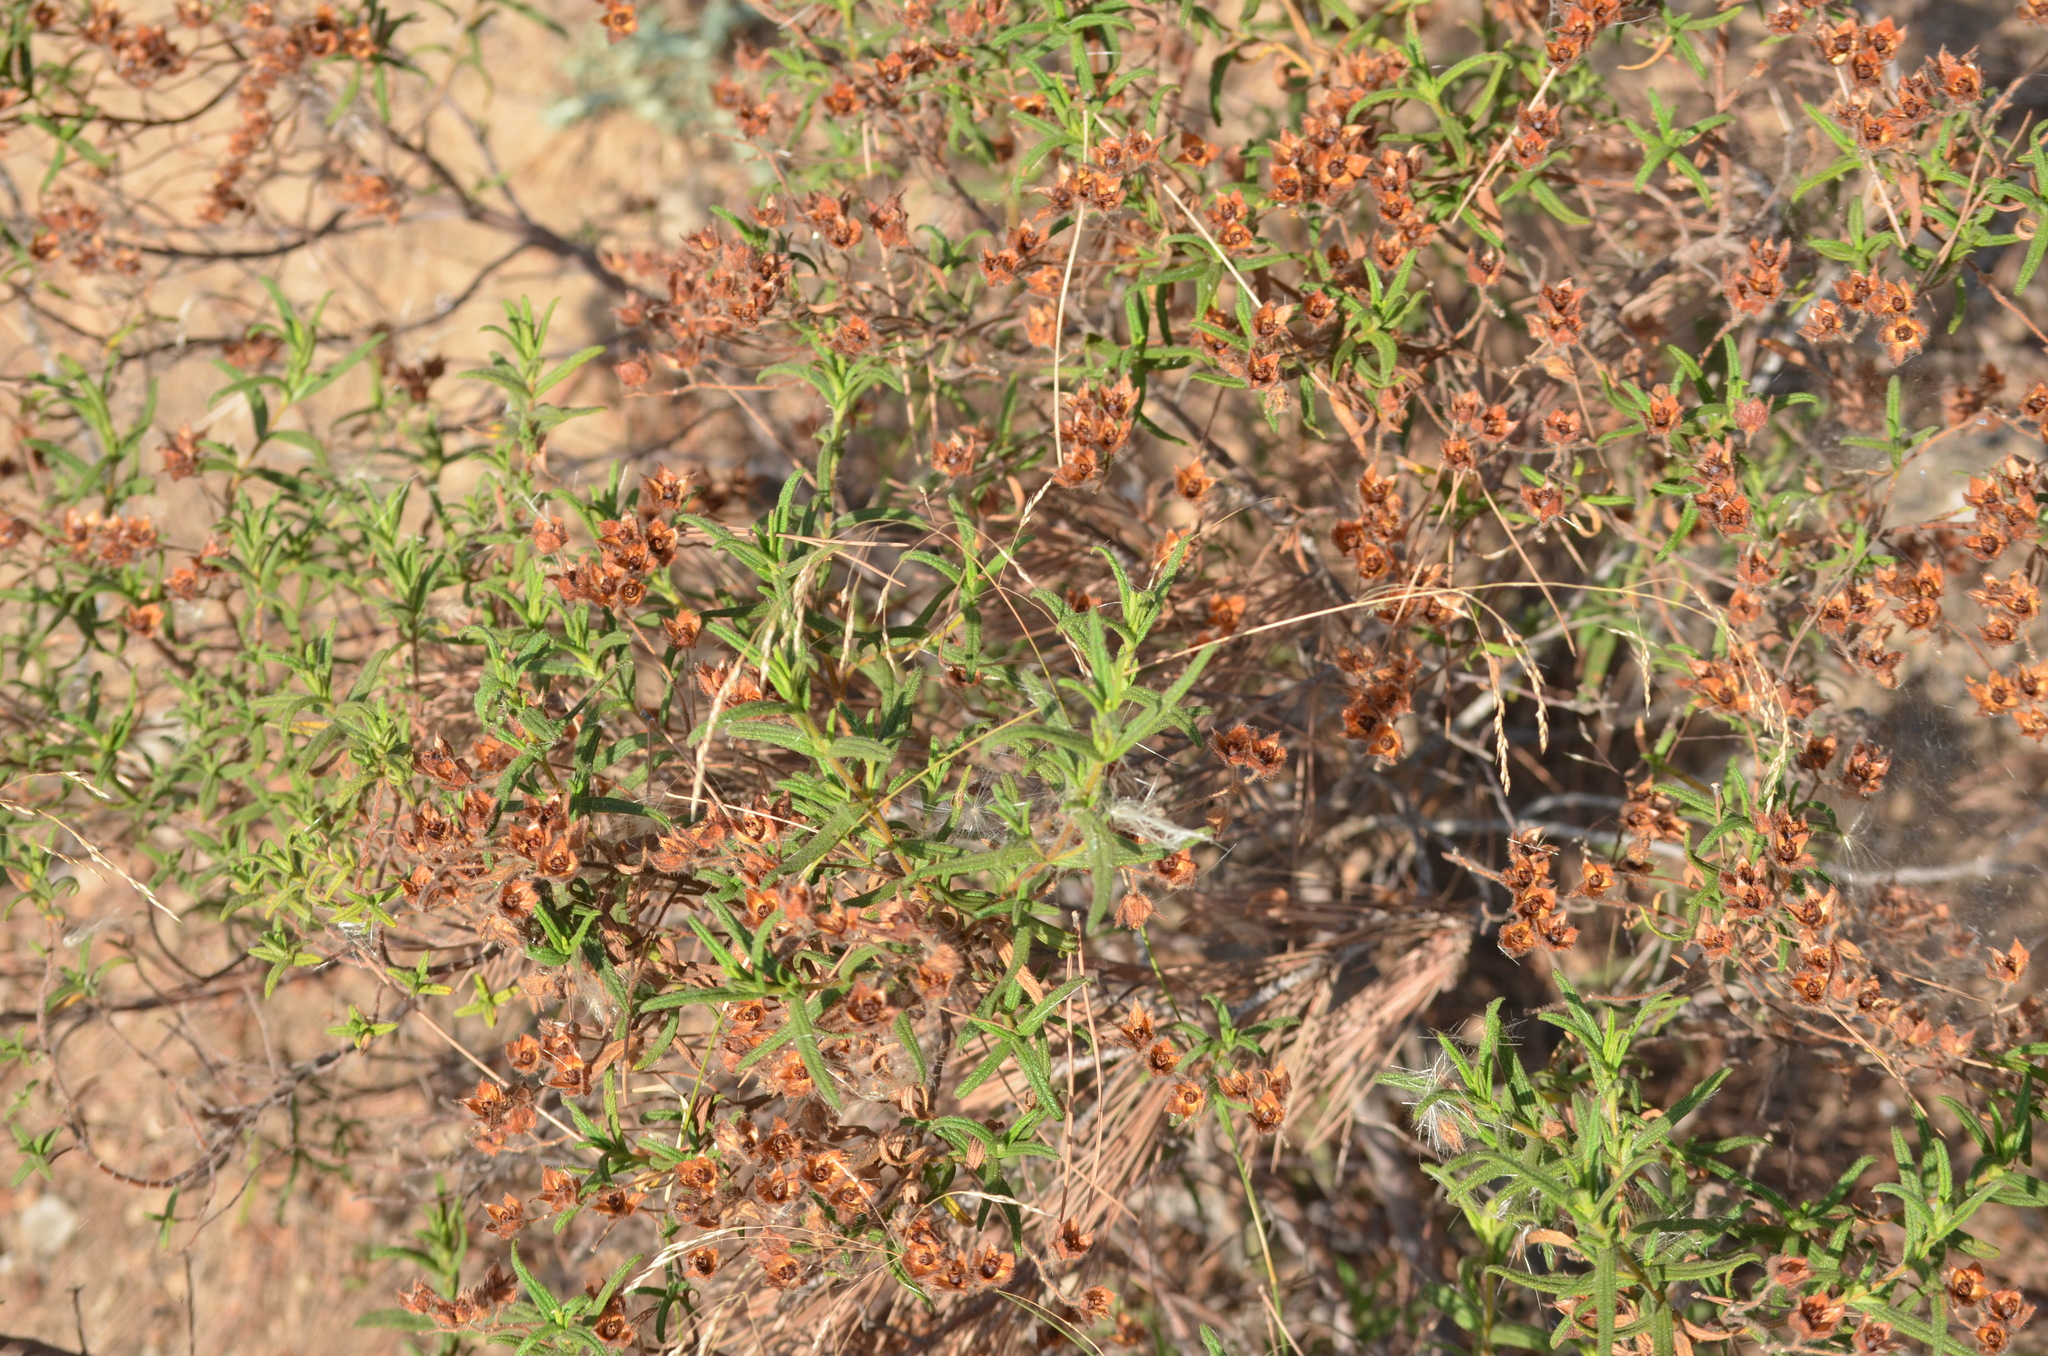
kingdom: Plantae
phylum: Tracheophyta
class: Magnoliopsida
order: Malvales
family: Cistaceae
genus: Cistus
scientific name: Cistus monspeliensis
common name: Montpelier cistus
